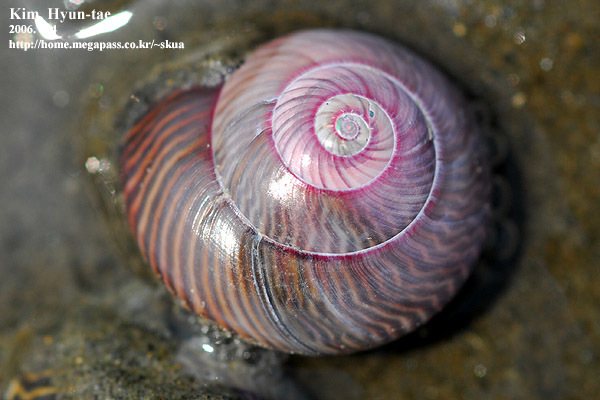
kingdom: Animalia
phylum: Mollusca
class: Gastropoda
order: Trochida
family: Trochidae
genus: Umbonium
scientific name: Umbonium thomasi
